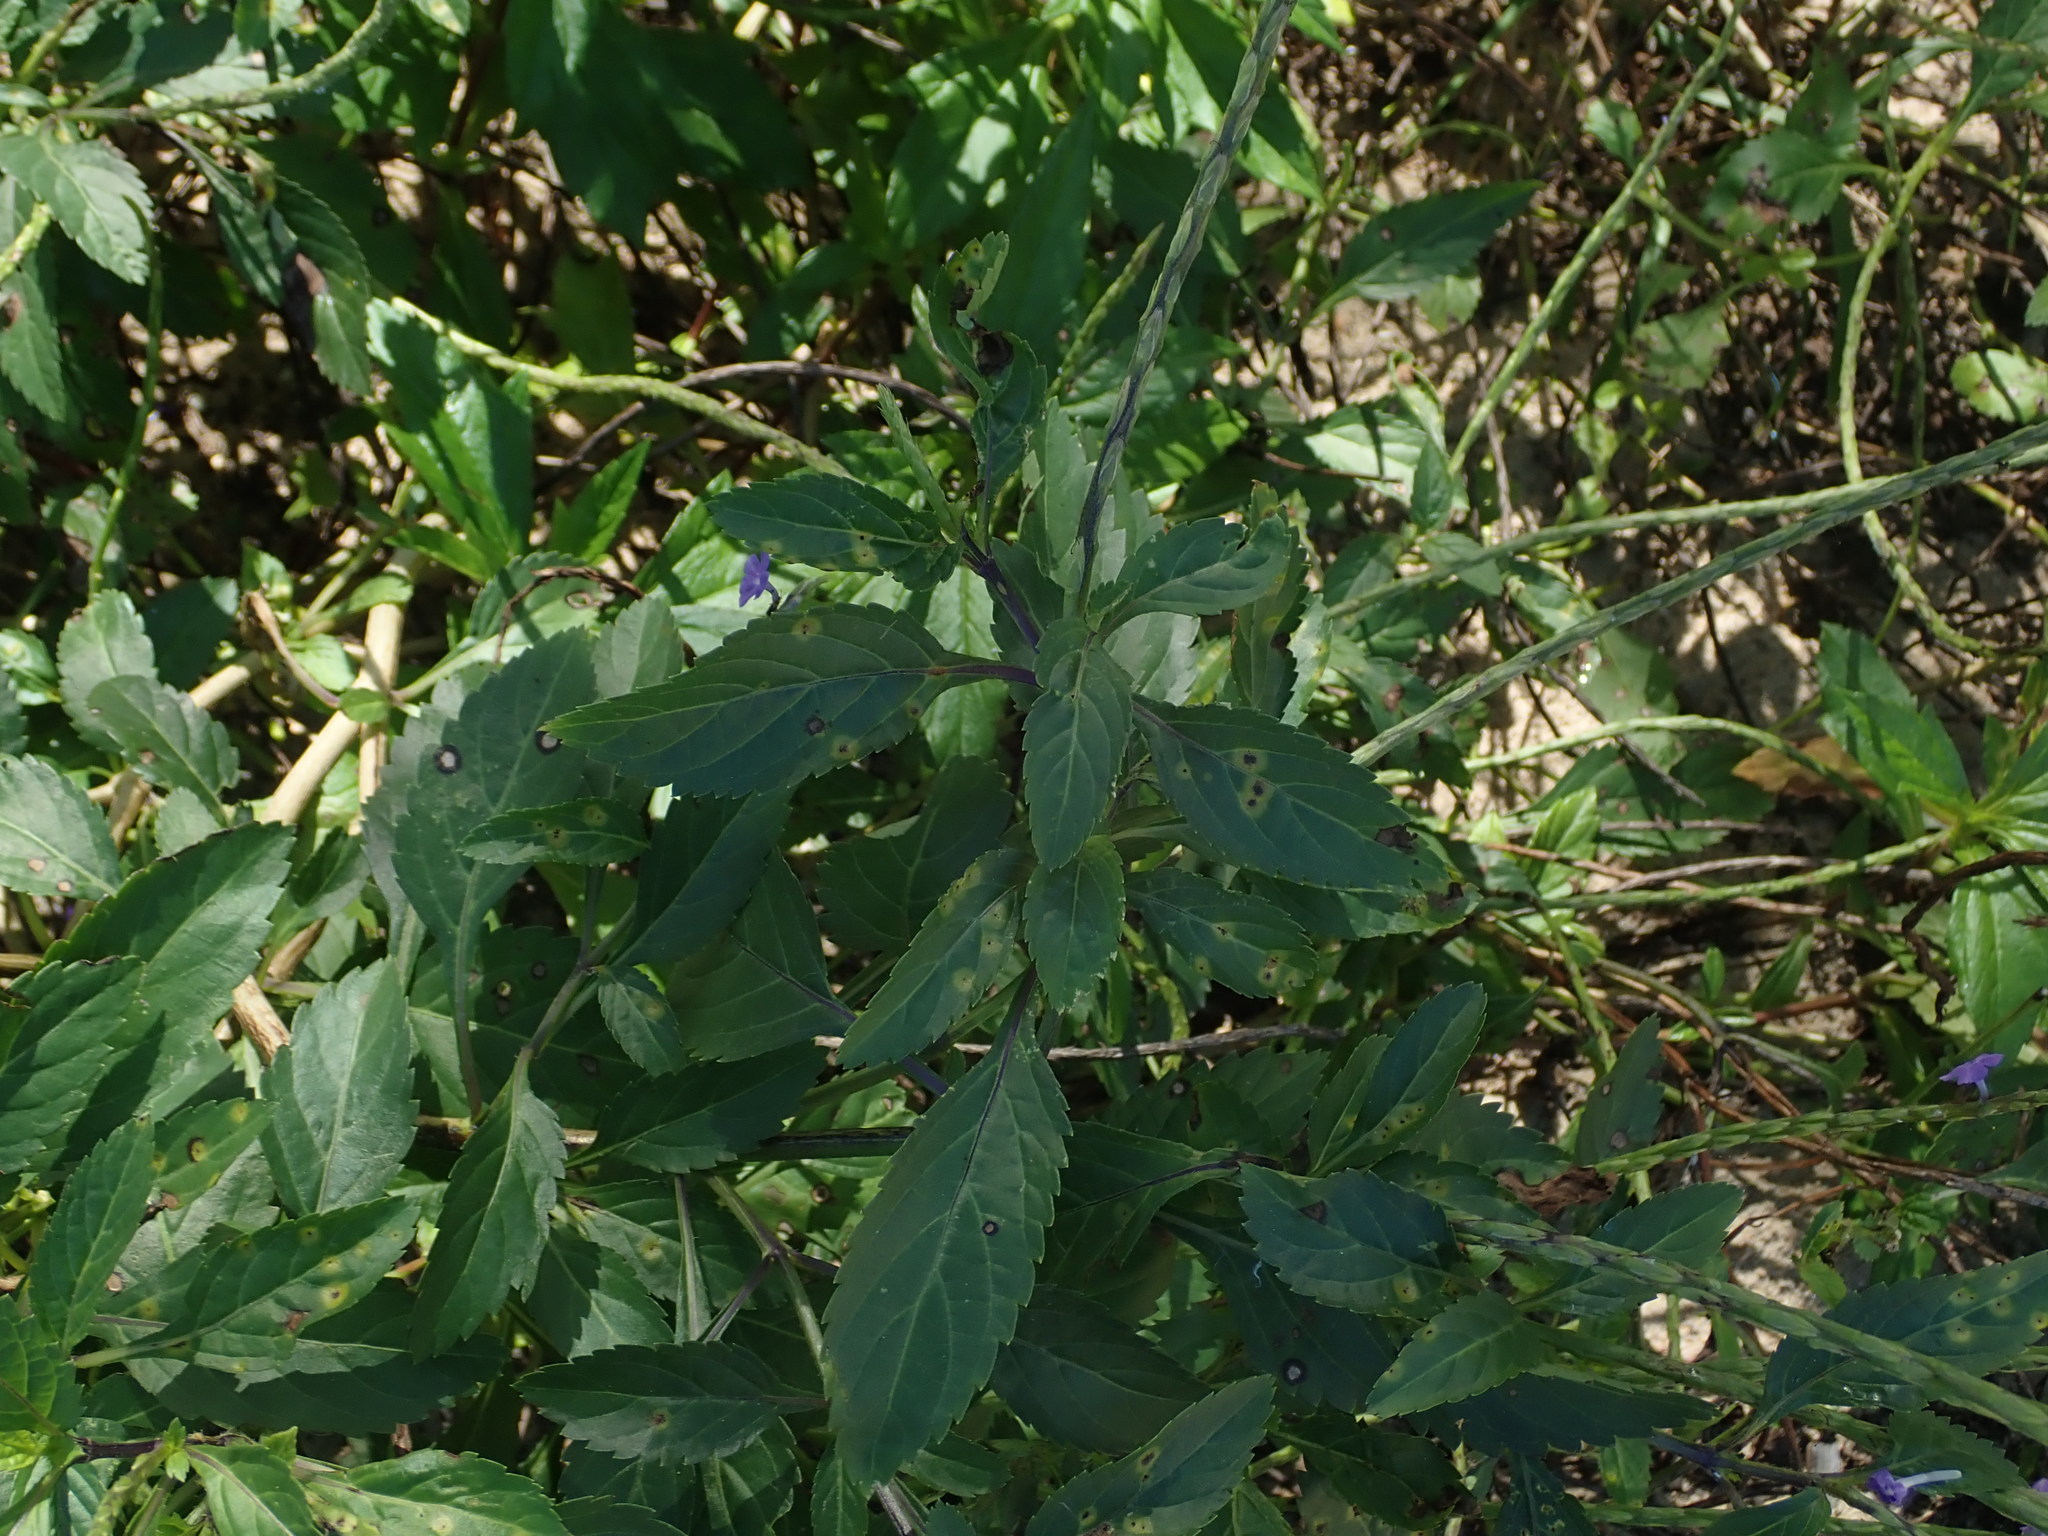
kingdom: Plantae
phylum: Tracheophyta
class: Magnoliopsida
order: Lamiales
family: Verbenaceae
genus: Stachytarpheta
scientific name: Stachytarpheta jamaicensis
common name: Light-blue snakeweed
